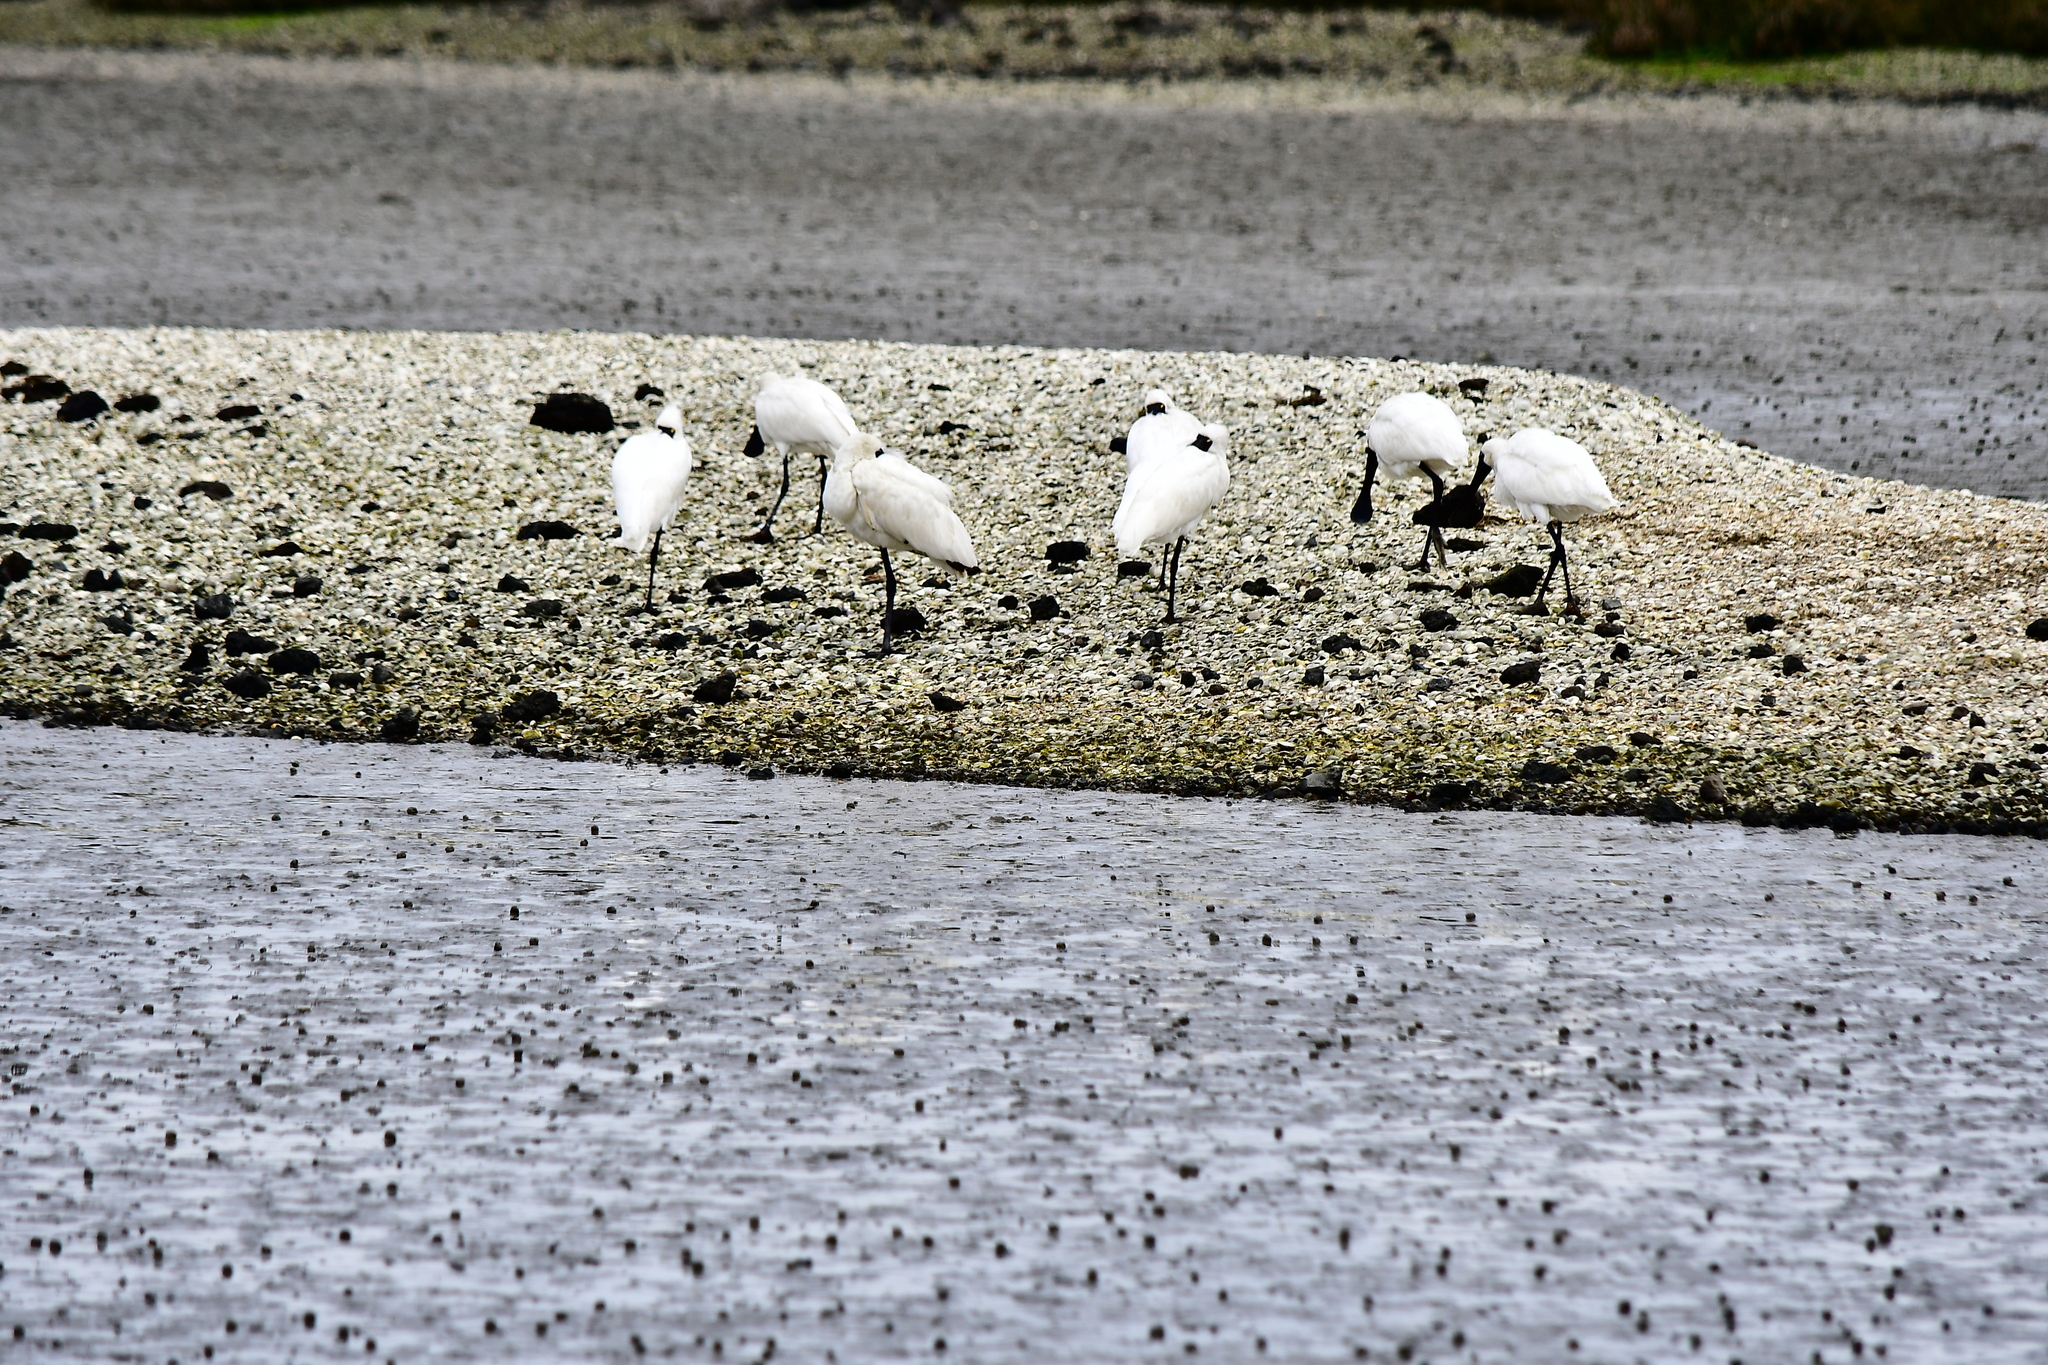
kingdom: Animalia
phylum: Chordata
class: Aves
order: Pelecaniformes
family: Threskiornithidae
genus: Platalea
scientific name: Platalea regia
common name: Royal spoonbill
